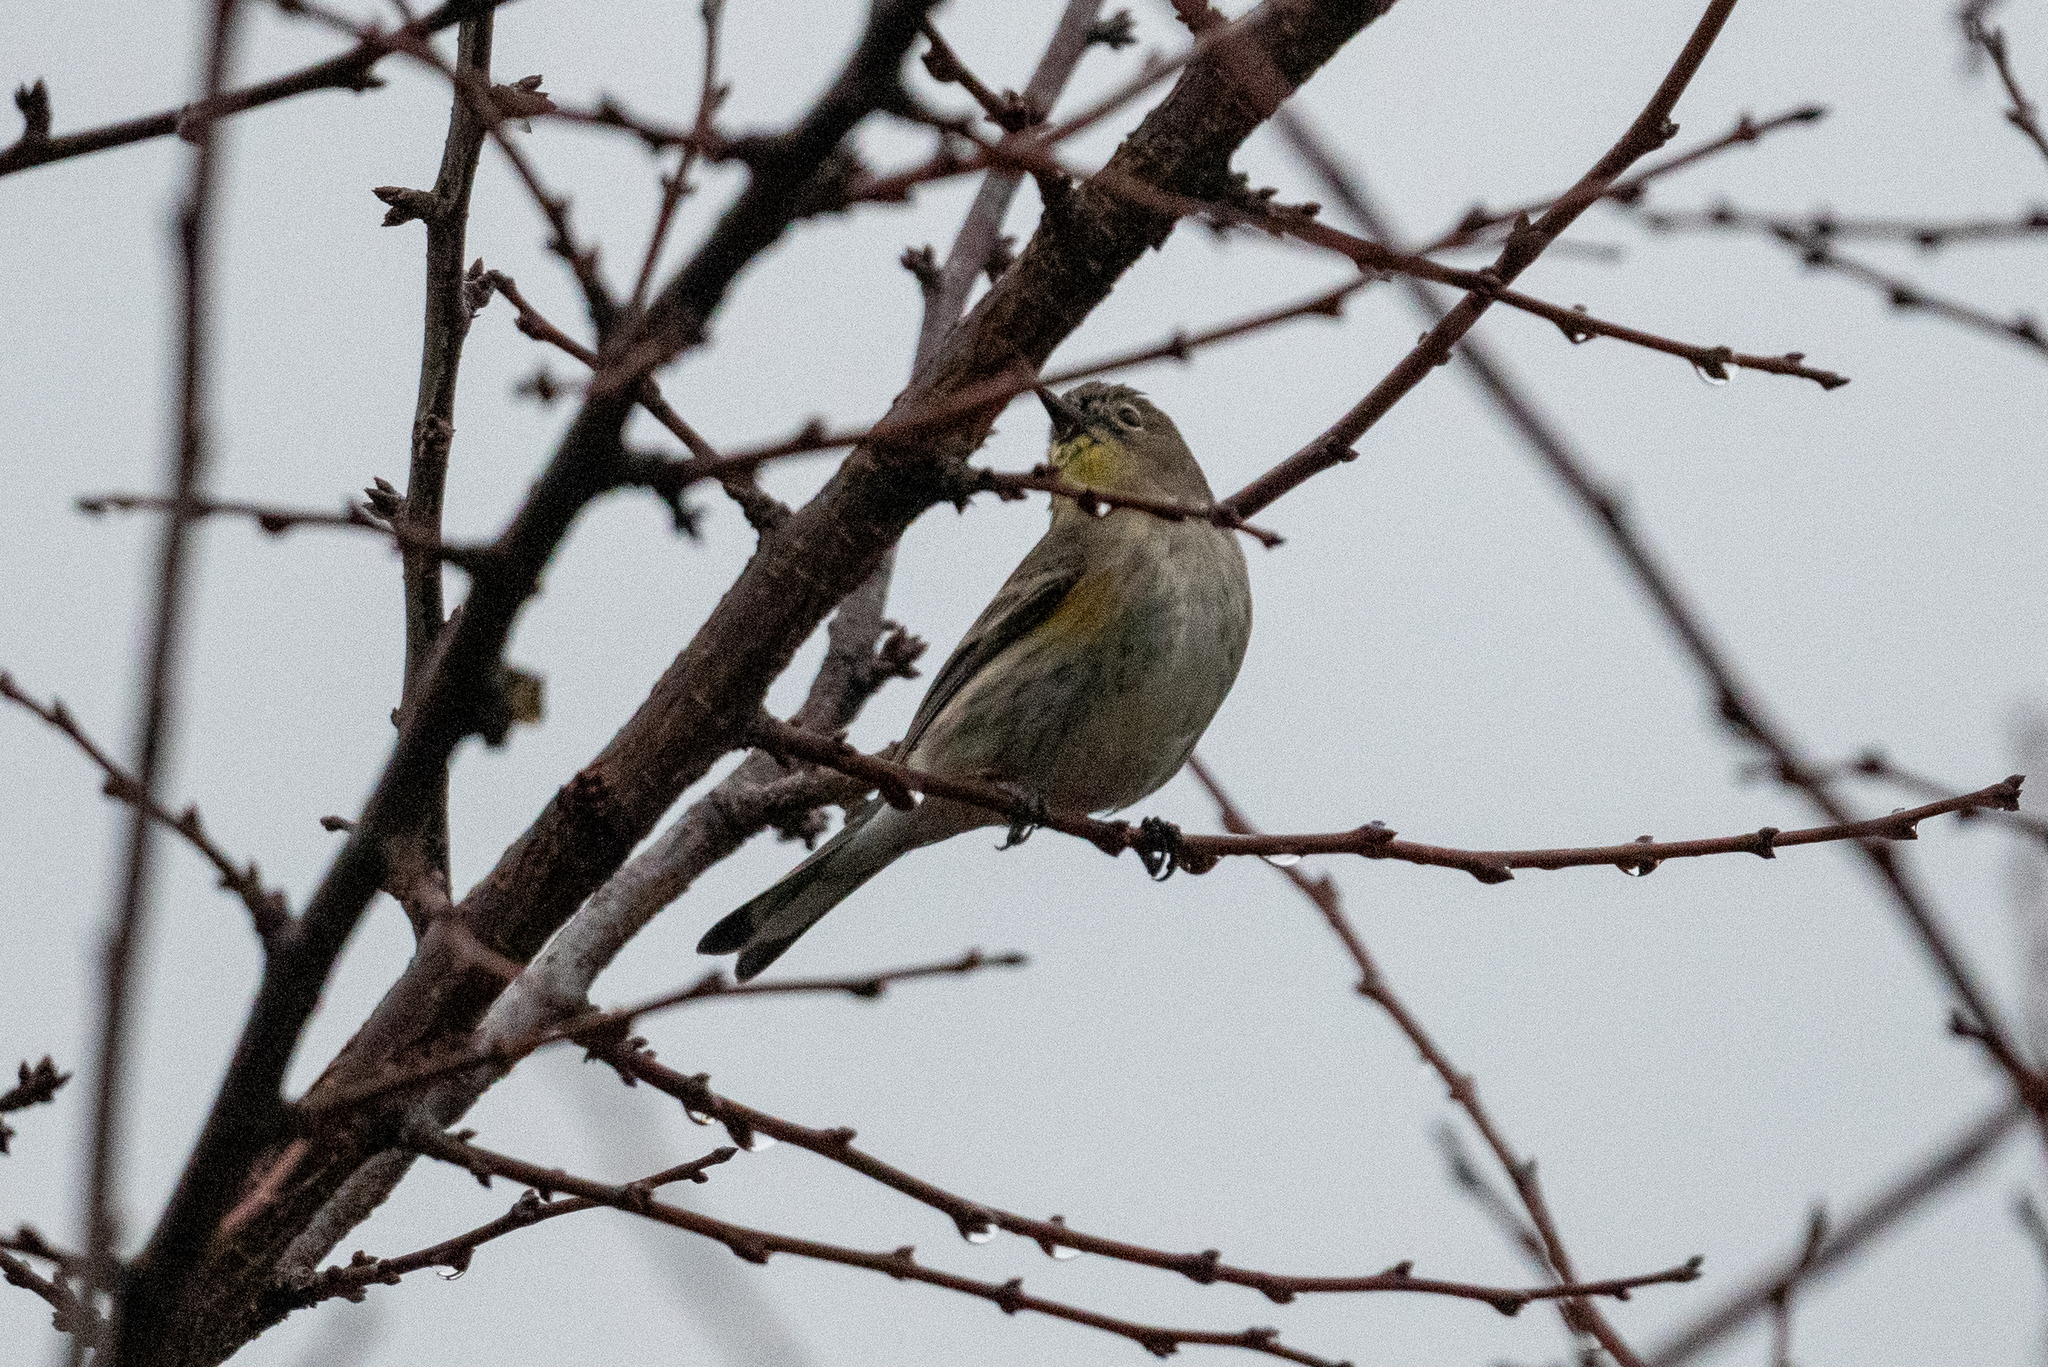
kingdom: Animalia
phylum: Chordata
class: Aves
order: Passeriformes
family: Parulidae
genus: Setophaga
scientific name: Setophaga coronata
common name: Myrtle warbler
